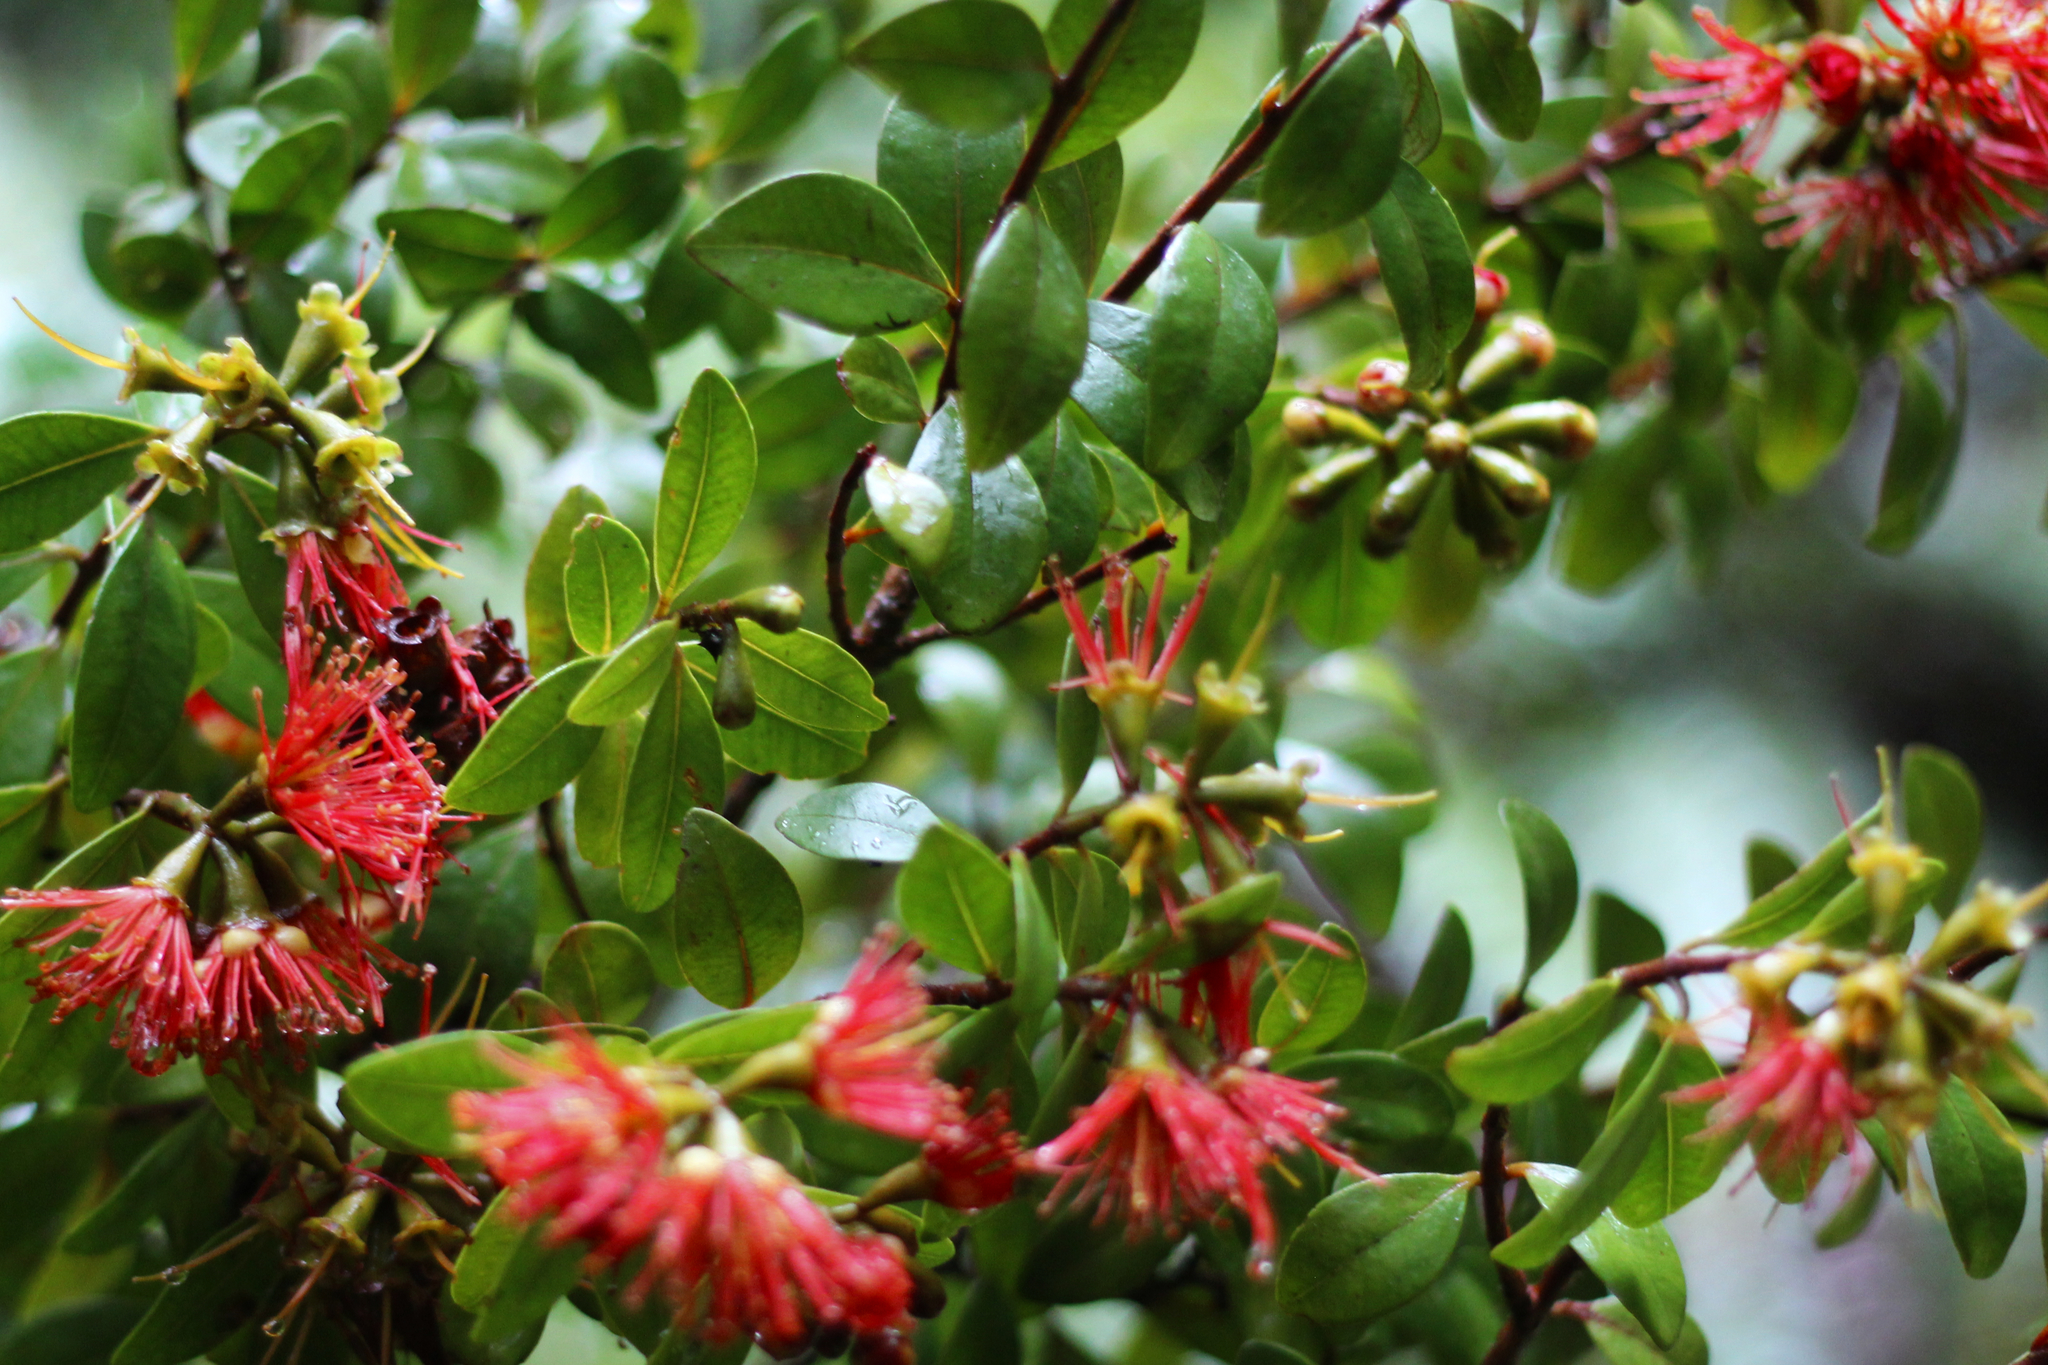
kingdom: Plantae
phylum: Tracheophyta
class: Magnoliopsida
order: Myrtales
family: Myrtaceae
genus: Metrosideros
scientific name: Metrosideros fulgens
